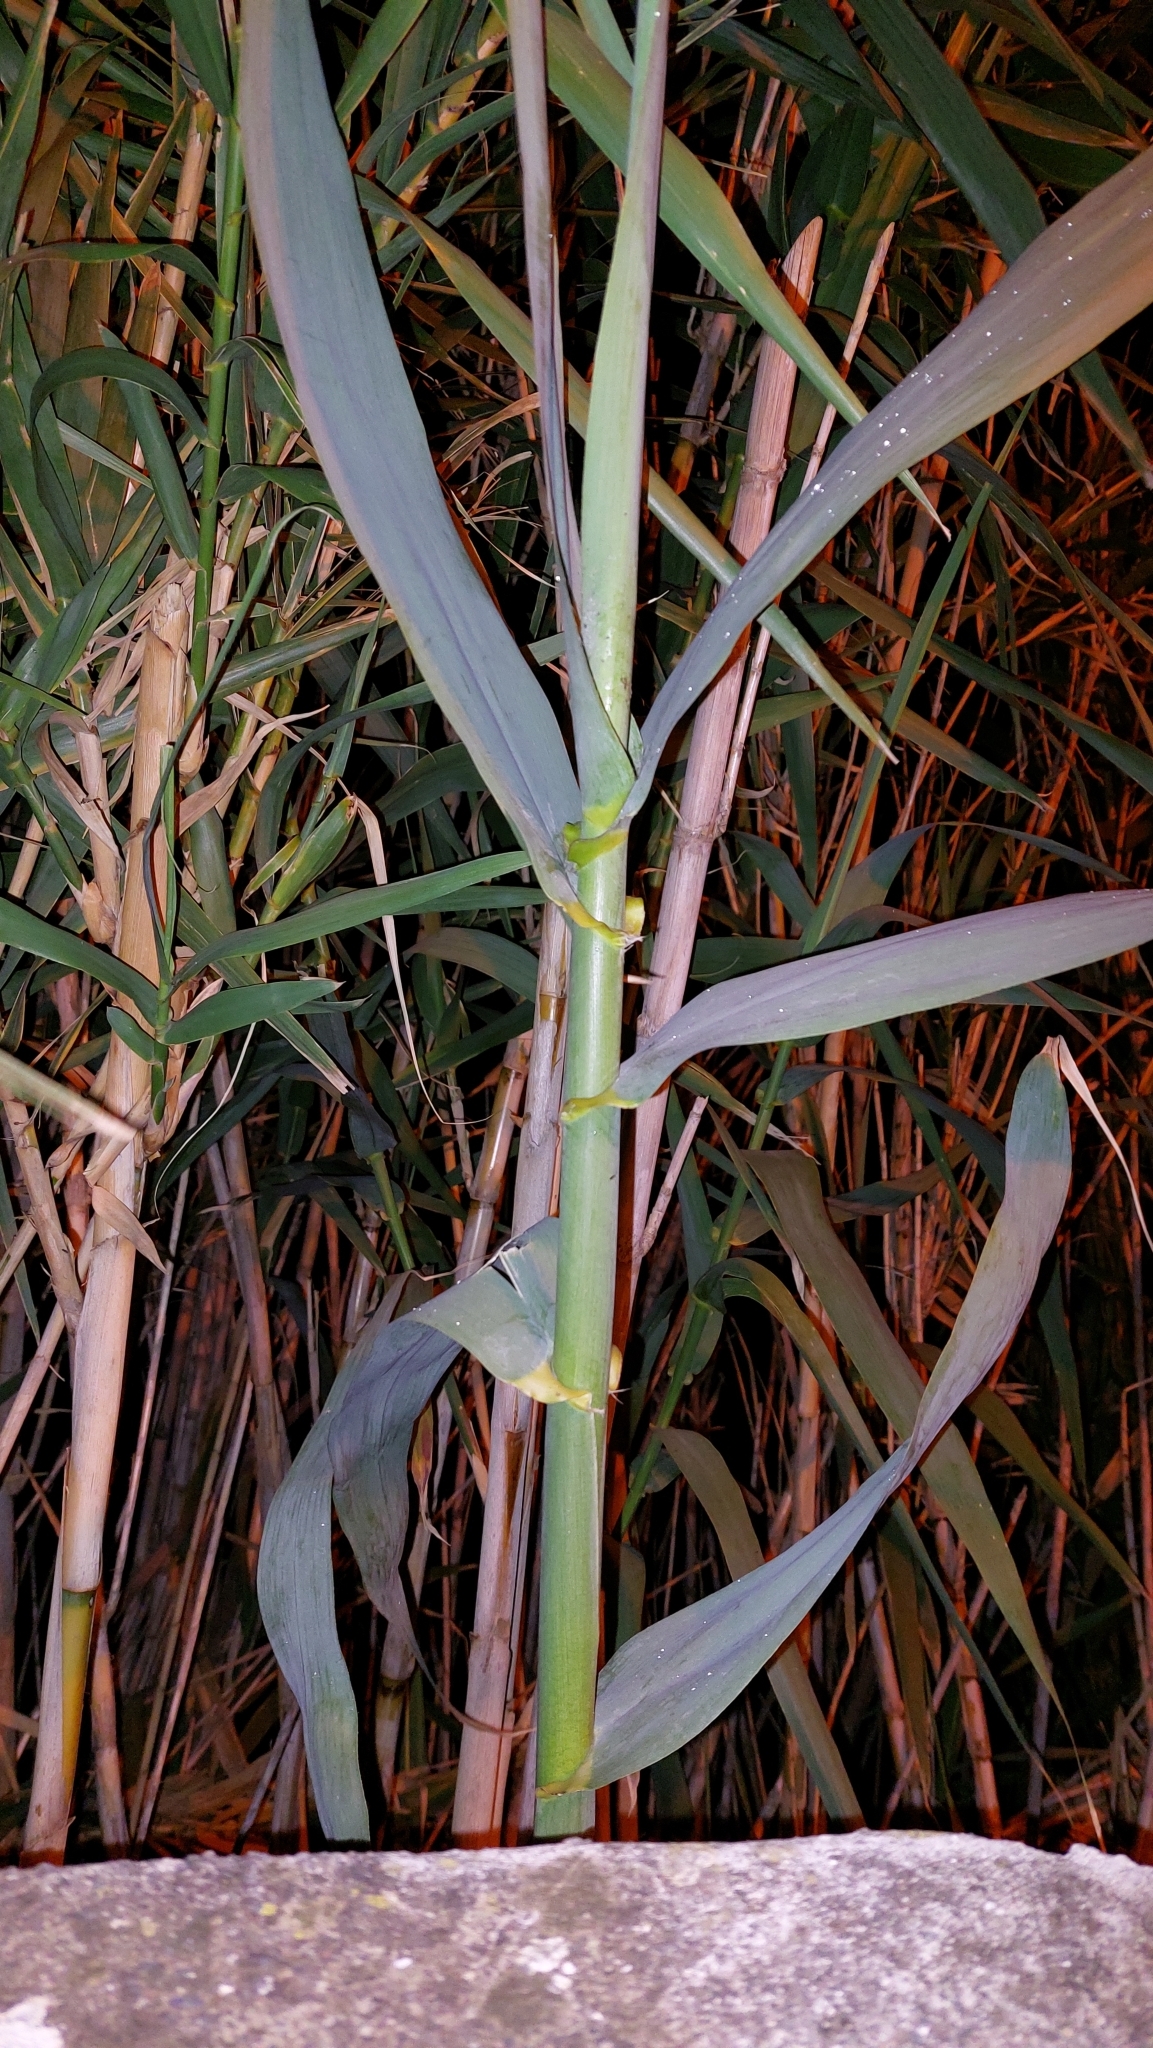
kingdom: Plantae
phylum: Tracheophyta
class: Liliopsida
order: Poales
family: Poaceae
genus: Arundo
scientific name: Arundo donax
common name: Giant reed
